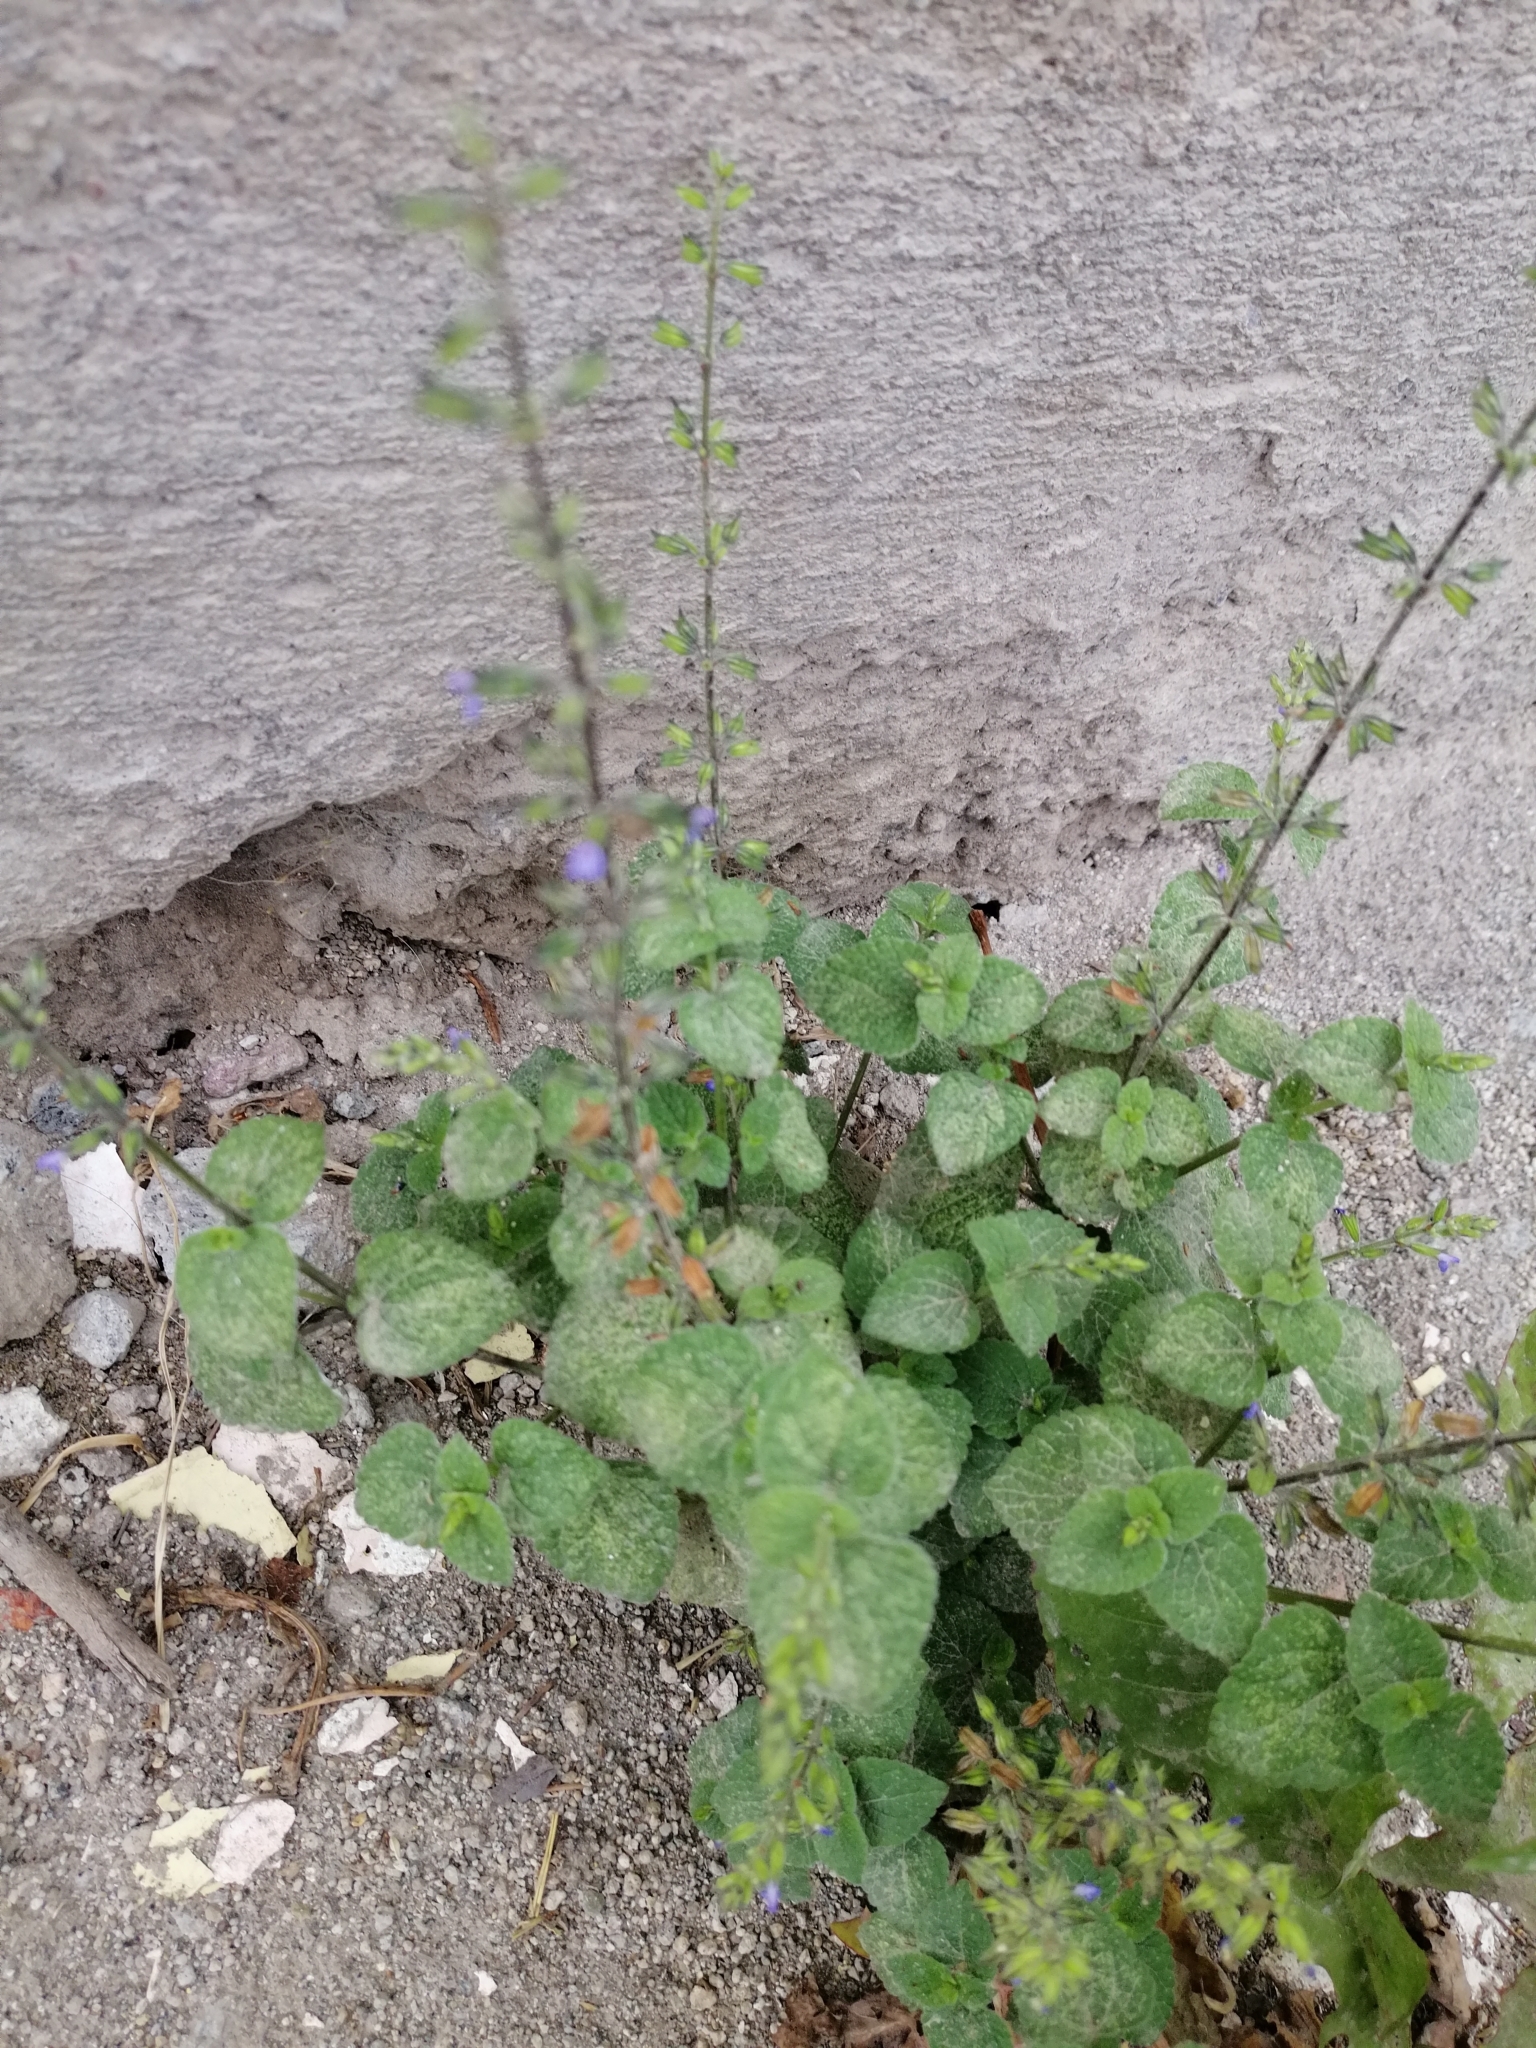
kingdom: Plantae
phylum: Tracheophyta
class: Magnoliopsida
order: Lamiales
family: Lamiaceae
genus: Salvia
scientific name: Salvia tiliifolia
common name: Lindenleaf sage
